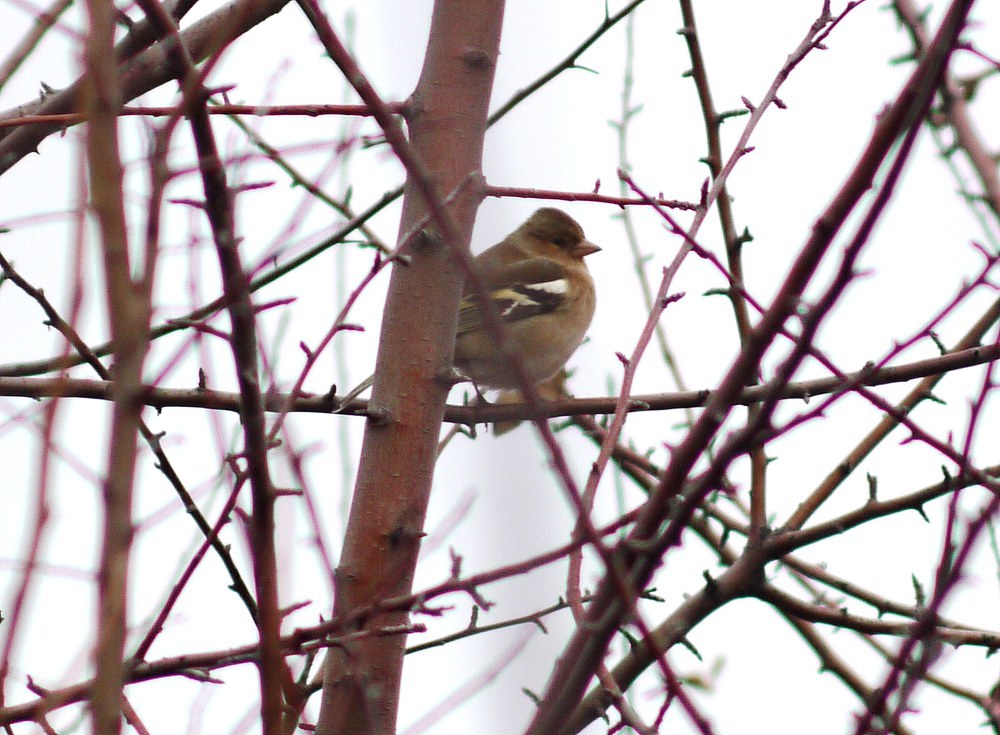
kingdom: Animalia
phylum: Chordata
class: Aves
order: Passeriformes
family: Fringillidae
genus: Fringilla
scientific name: Fringilla coelebs
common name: Common chaffinch
